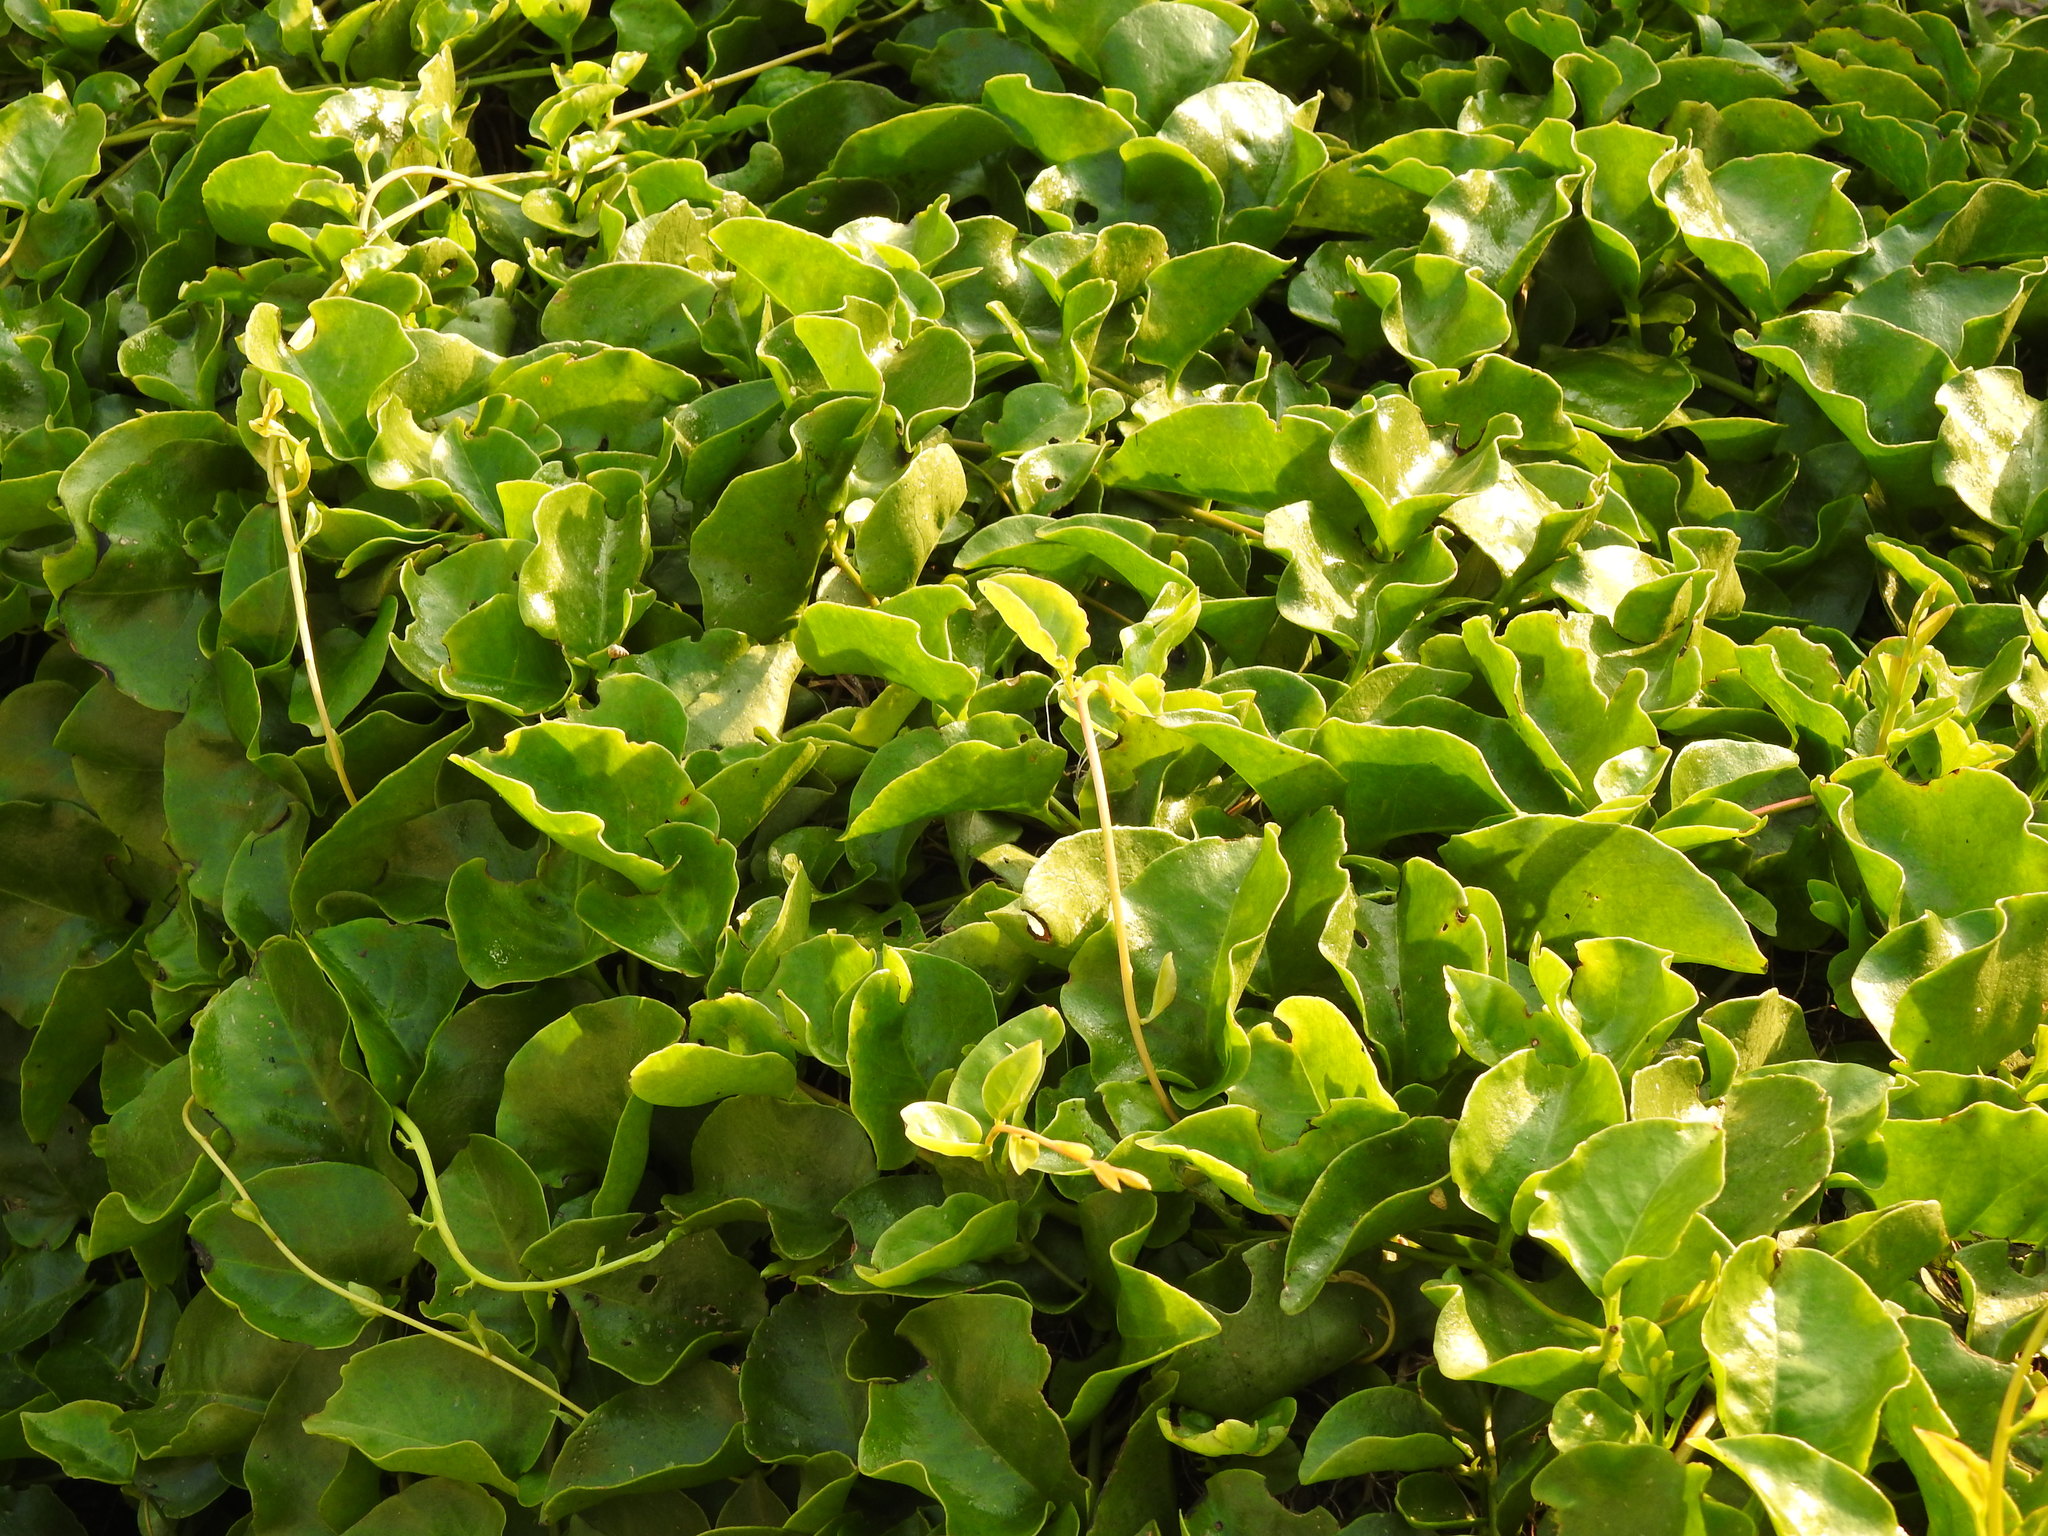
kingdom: Plantae
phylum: Tracheophyta
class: Magnoliopsida
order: Caryophyllales
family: Basellaceae
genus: Anredera
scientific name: Anredera cordifolia
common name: Heartleaf madeiravine
